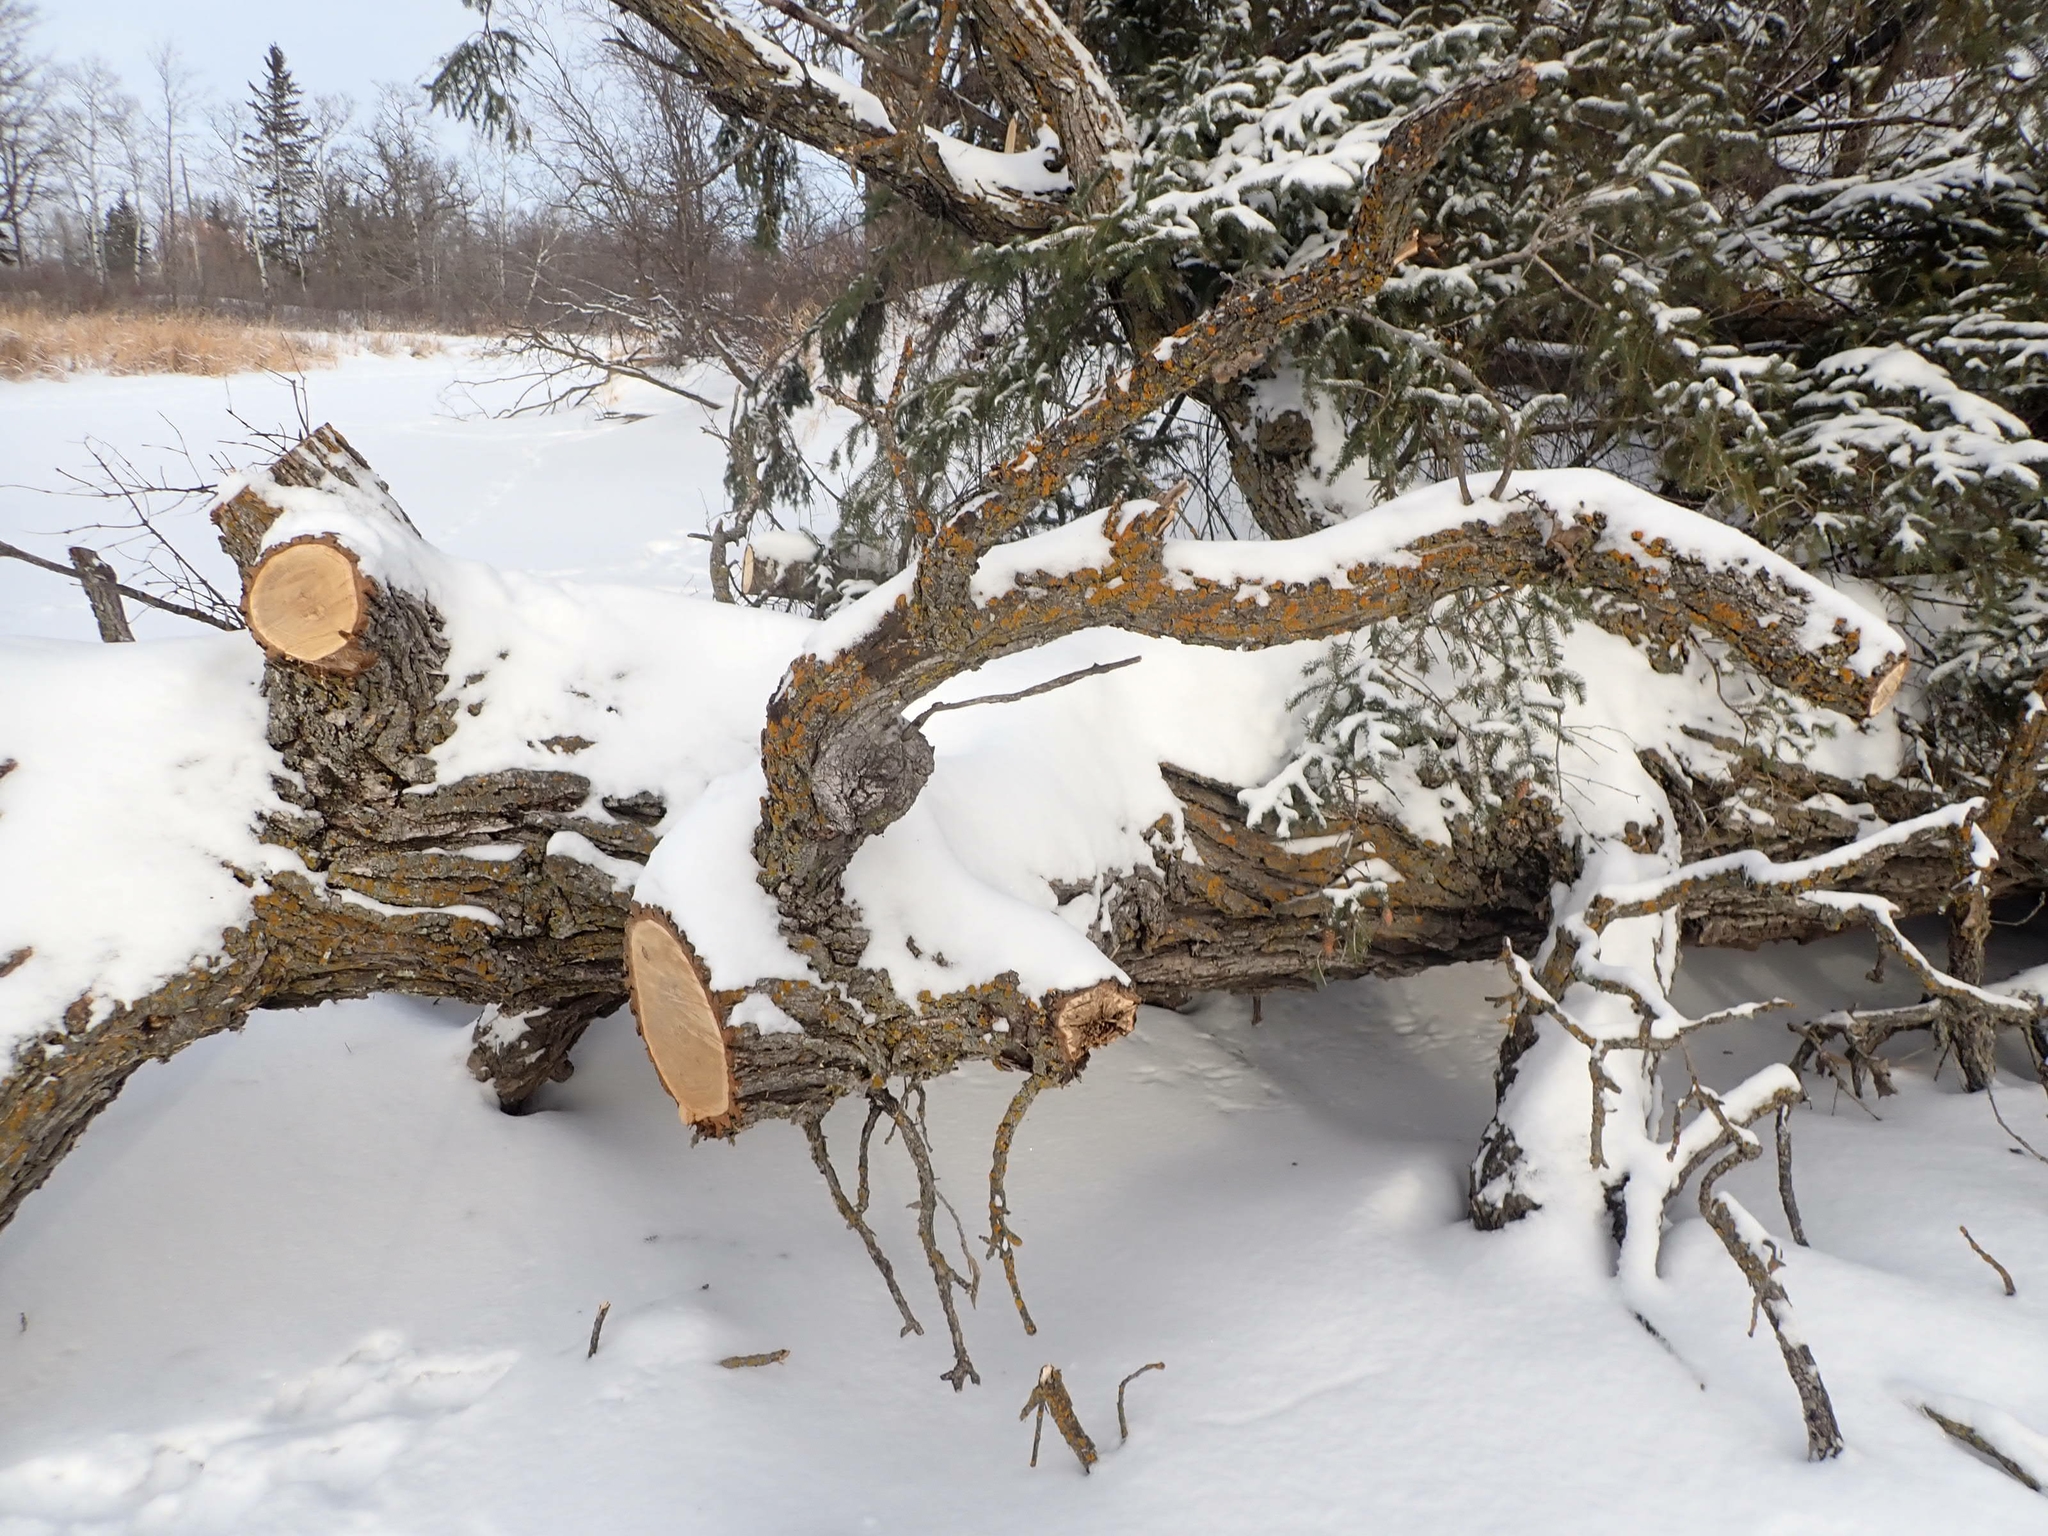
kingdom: Plantae
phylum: Tracheophyta
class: Magnoliopsida
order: Fagales
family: Fagaceae
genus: Quercus
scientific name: Quercus macrocarpa
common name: Bur oak
